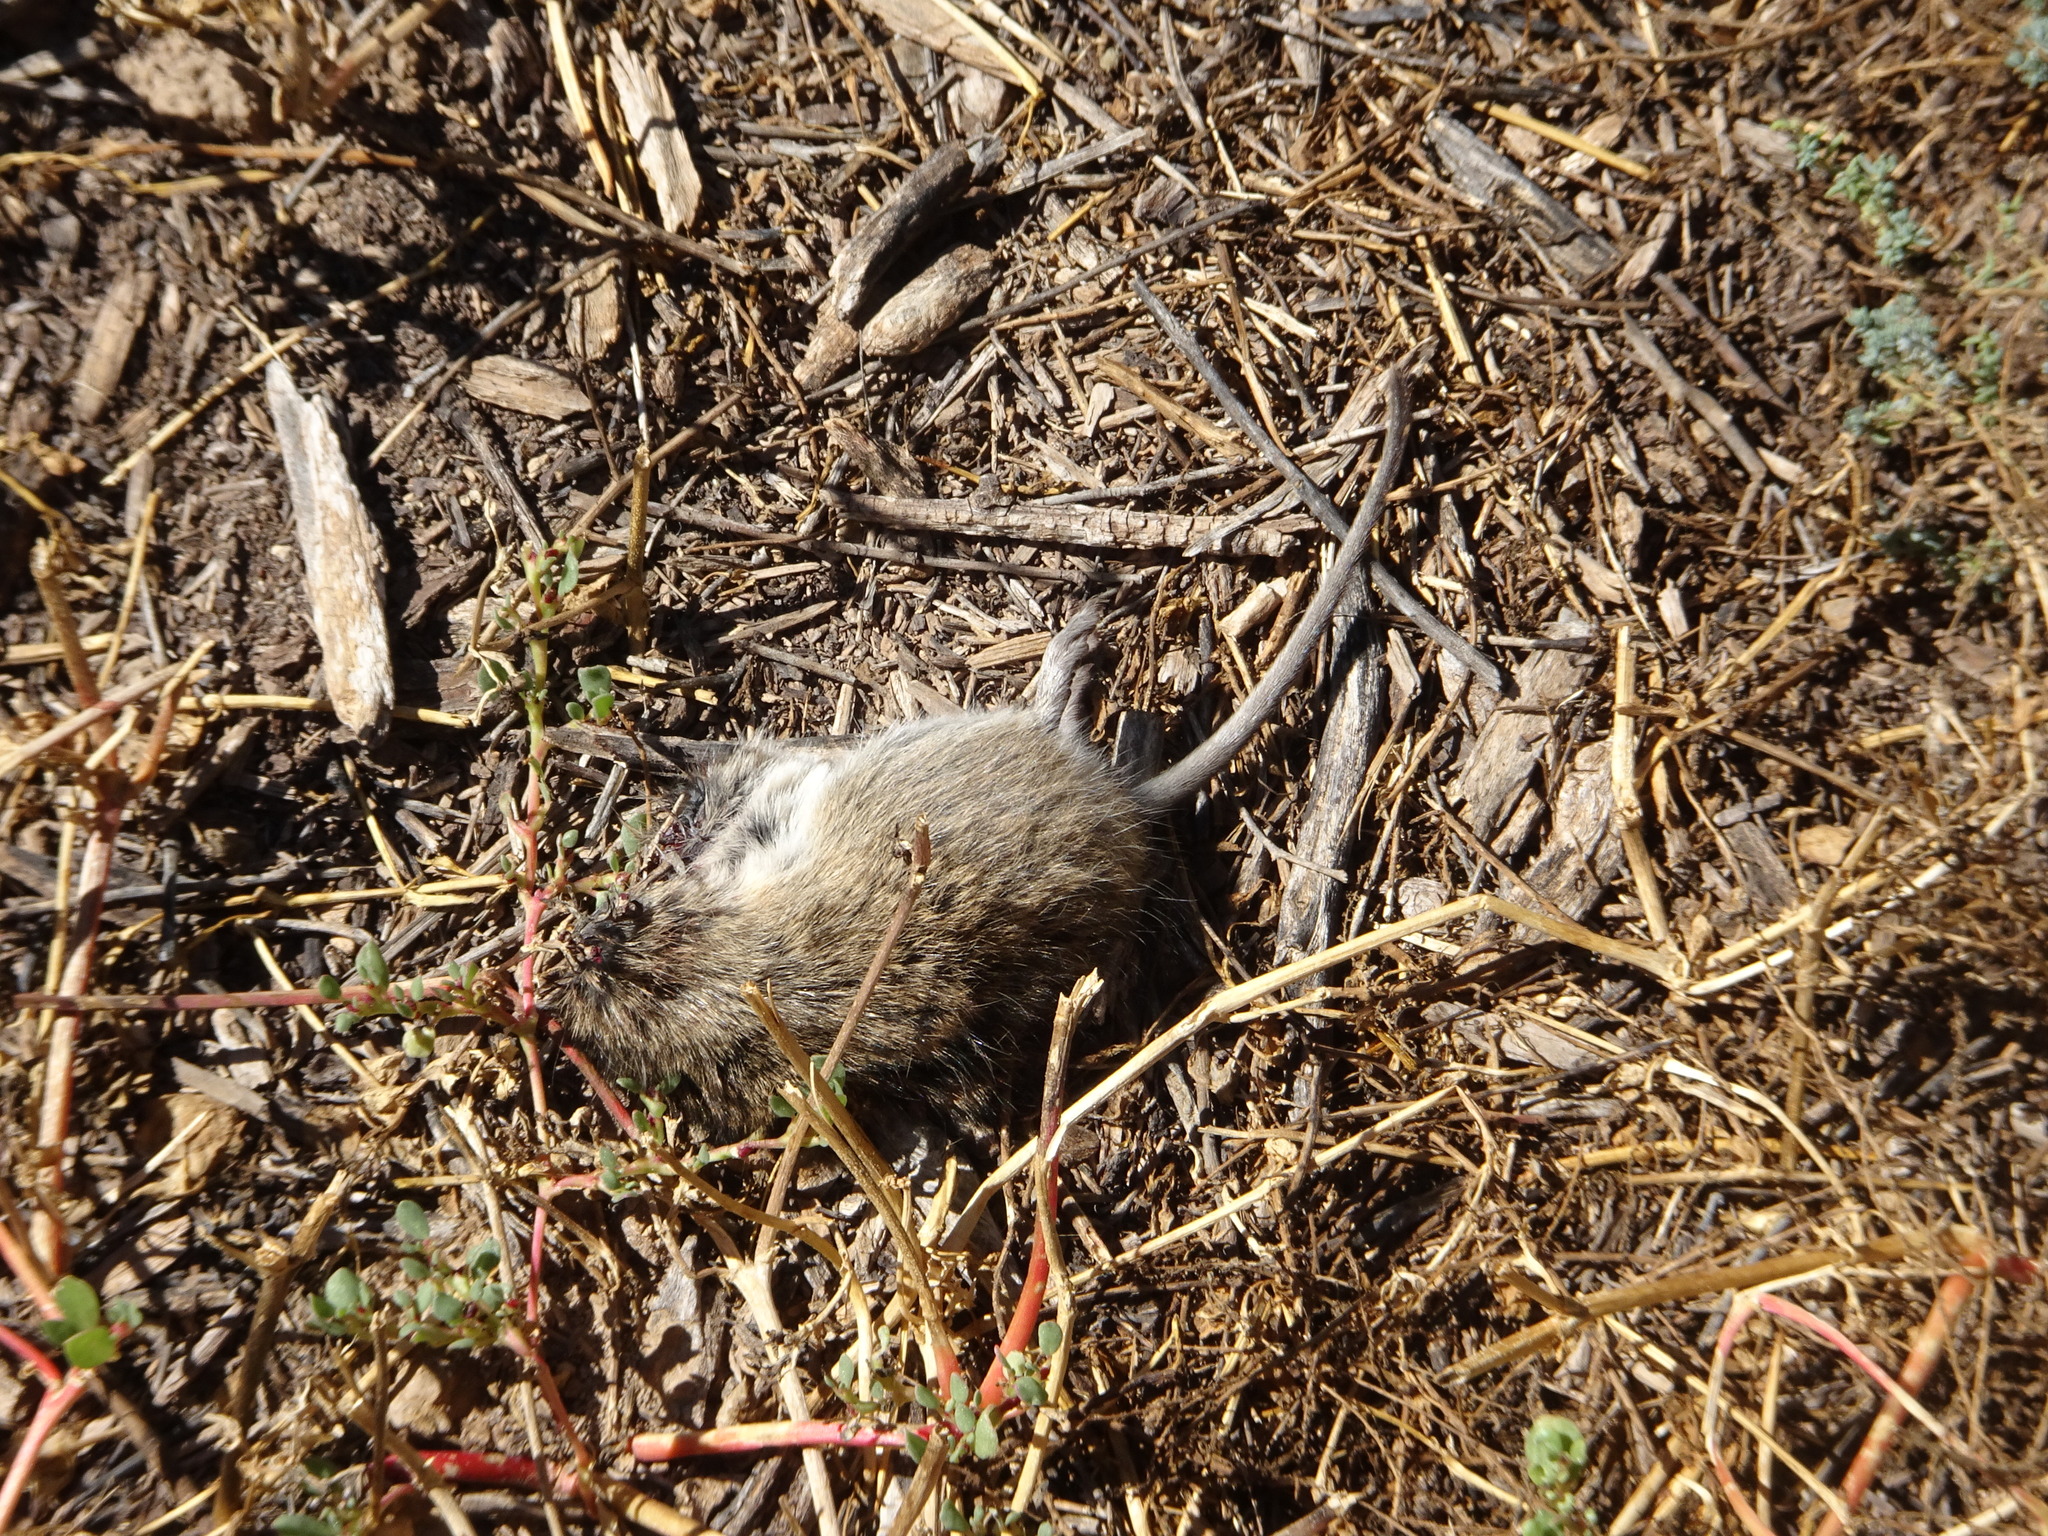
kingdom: Animalia
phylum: Chordata
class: Mammalia
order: Rodentia
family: Cricetidae
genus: Sigmodon
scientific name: Sigmodon hispidus
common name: Hispid cotton rat
